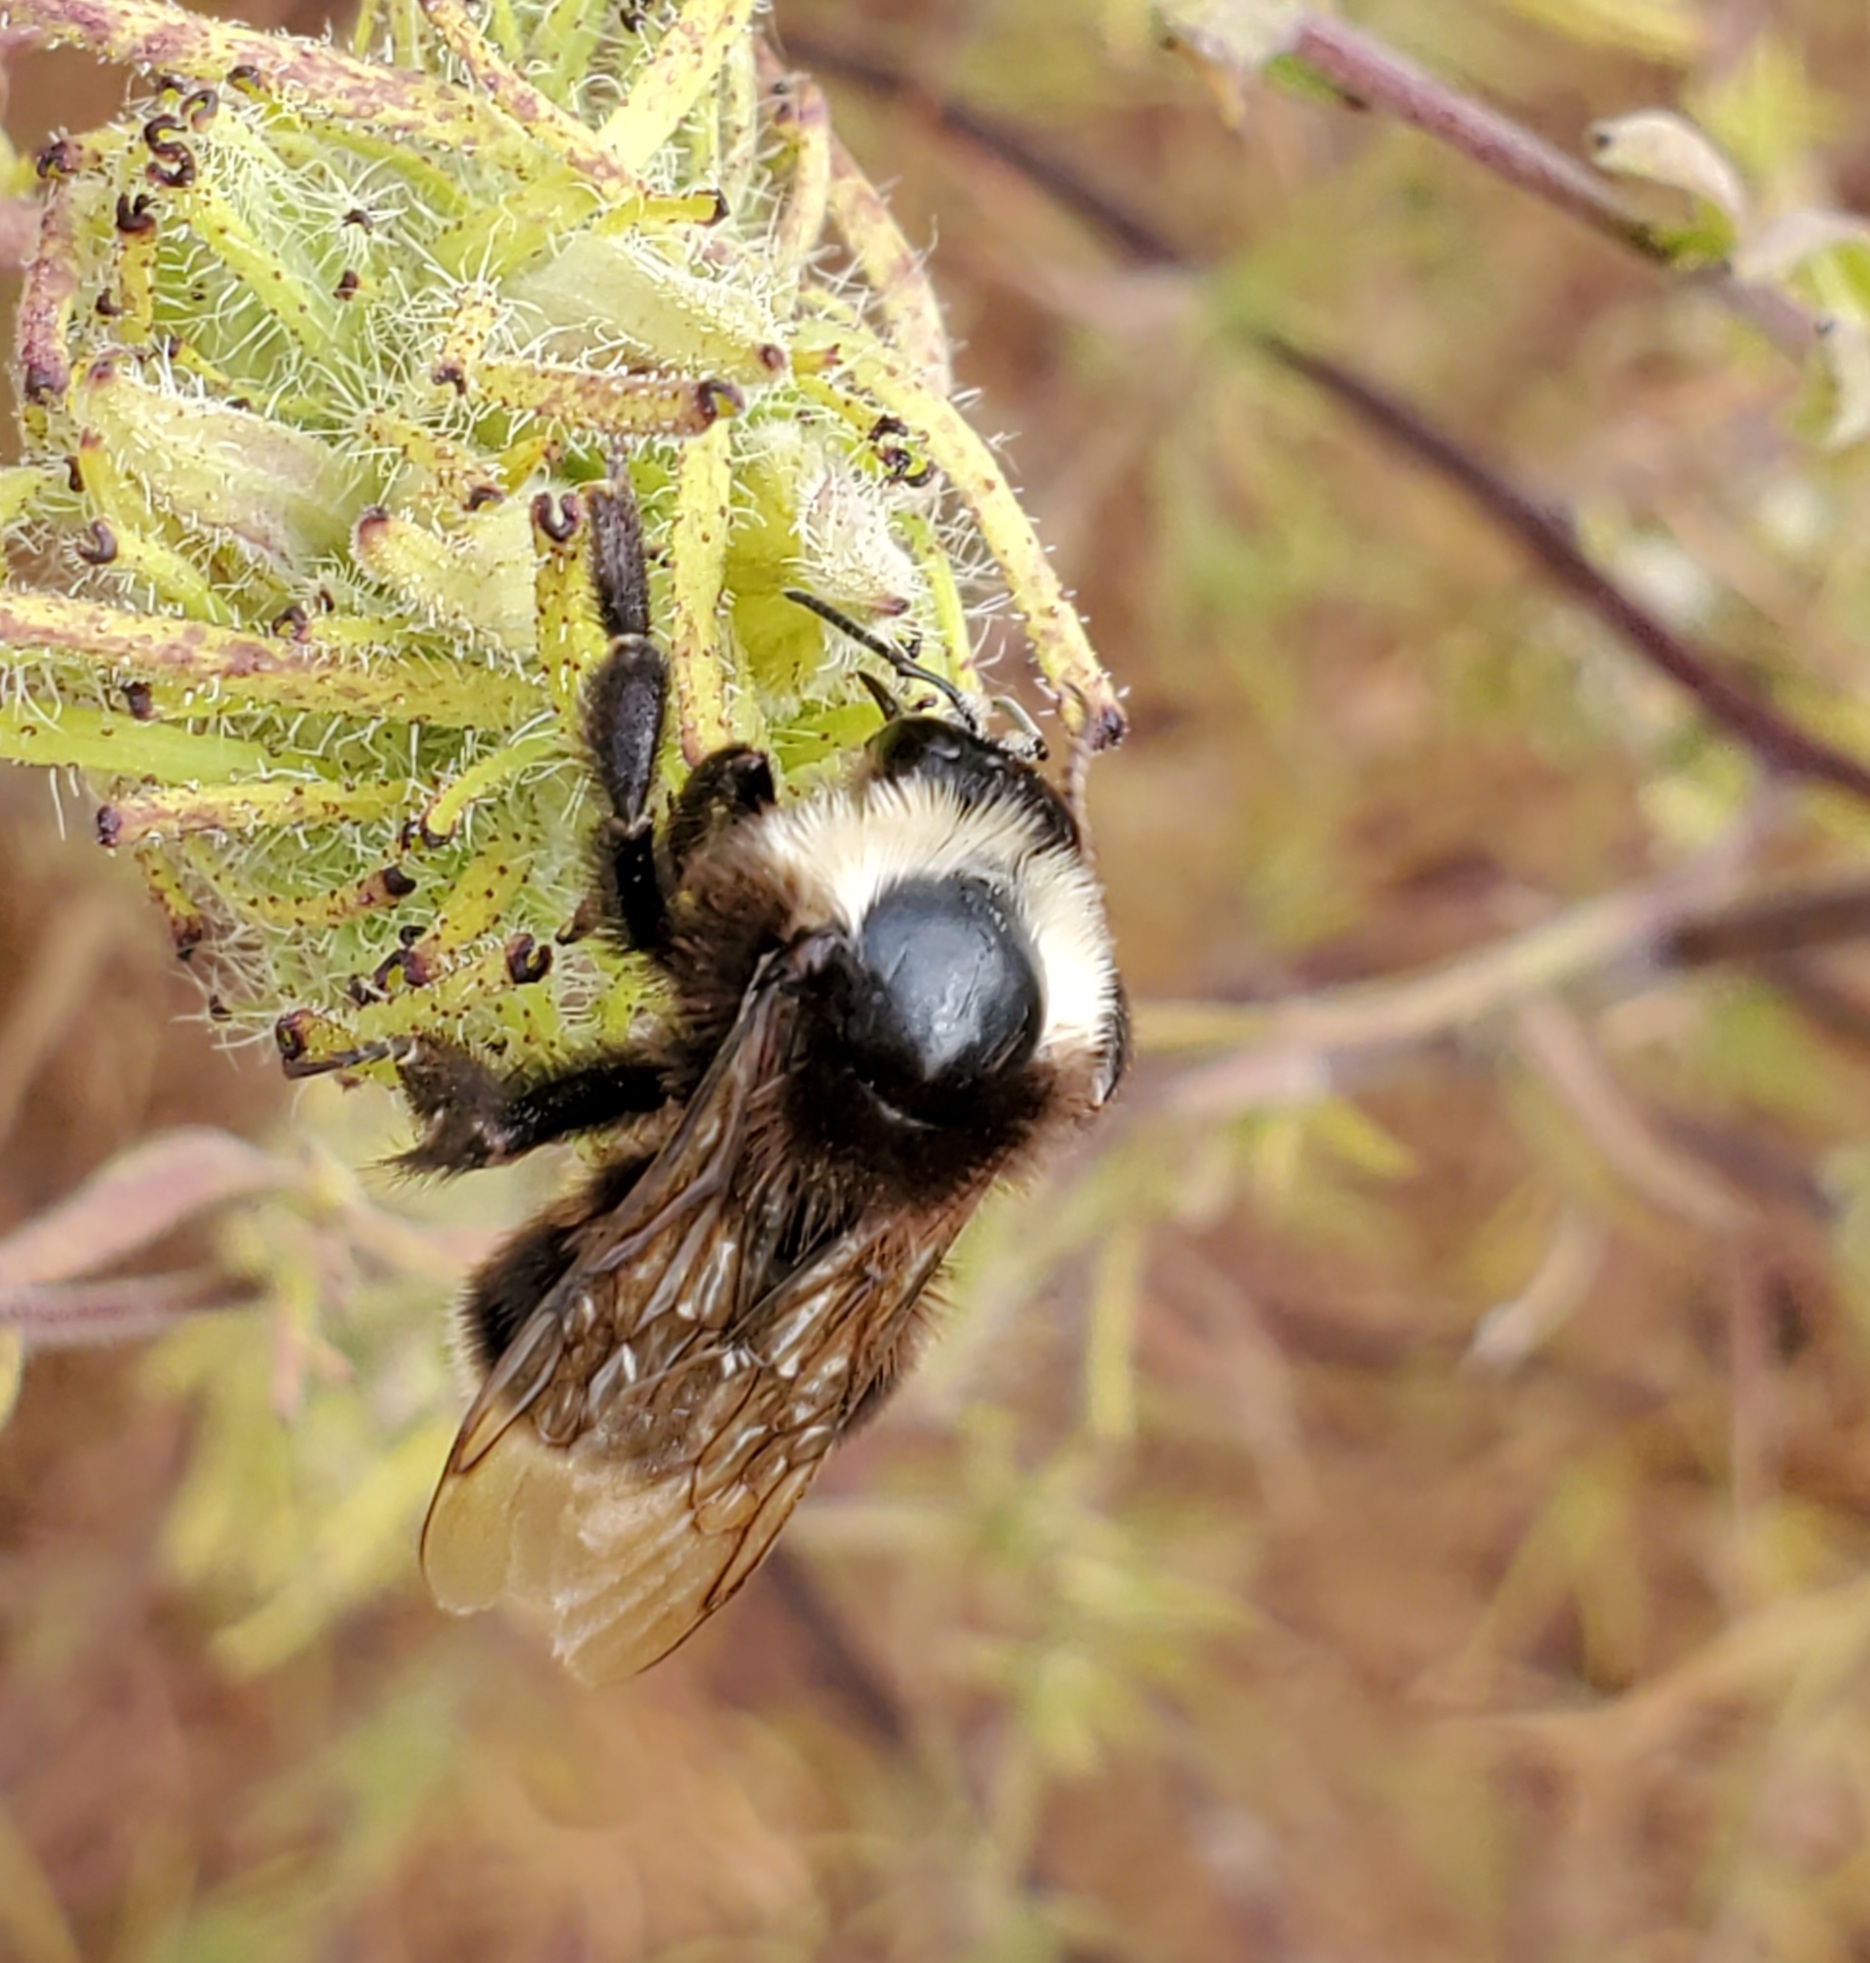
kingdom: Animalia
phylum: Arthropoda
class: Insecta
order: Hymenoptera
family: Apidae
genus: Bombus
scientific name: Bombus californicus
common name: California bumble bee
